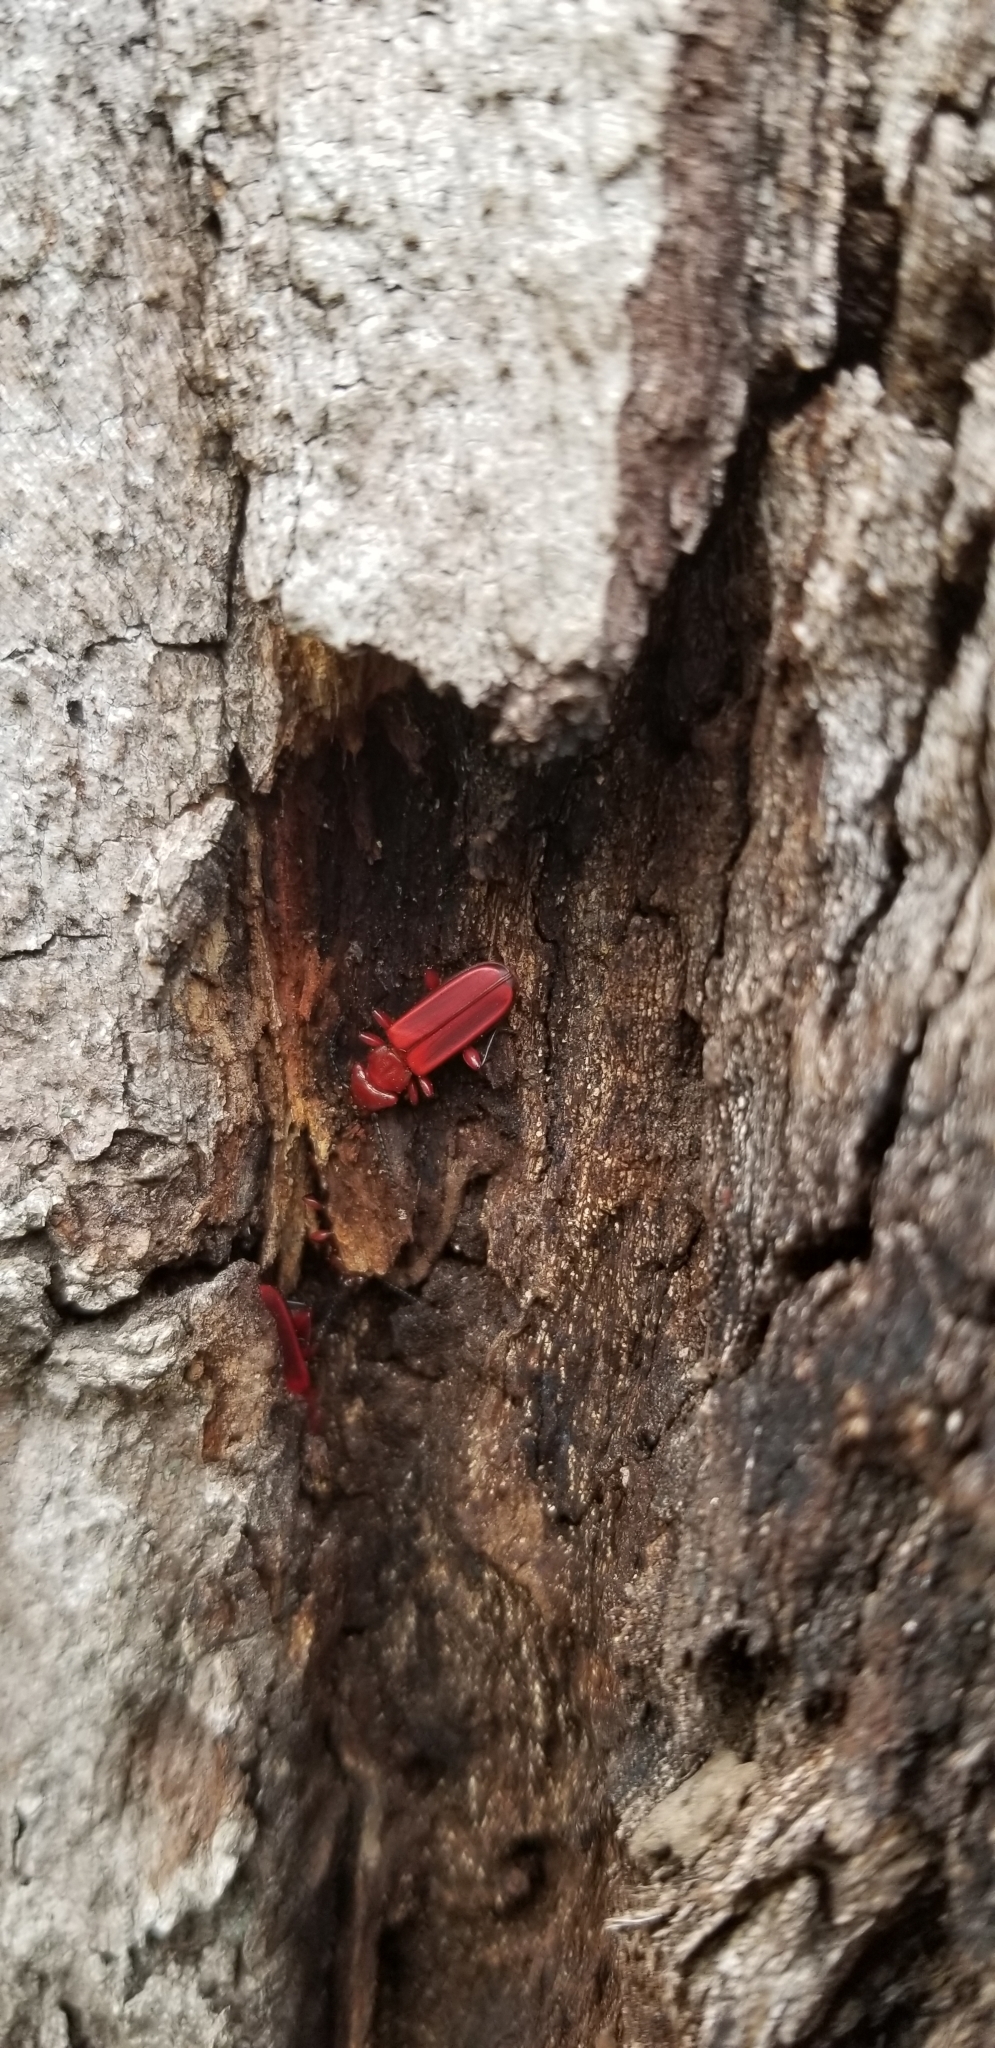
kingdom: Animalia
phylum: Arthropoda
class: Insecta
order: Coleoptera
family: Cucujidae
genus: Cucujus
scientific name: Cucujus clavipes
